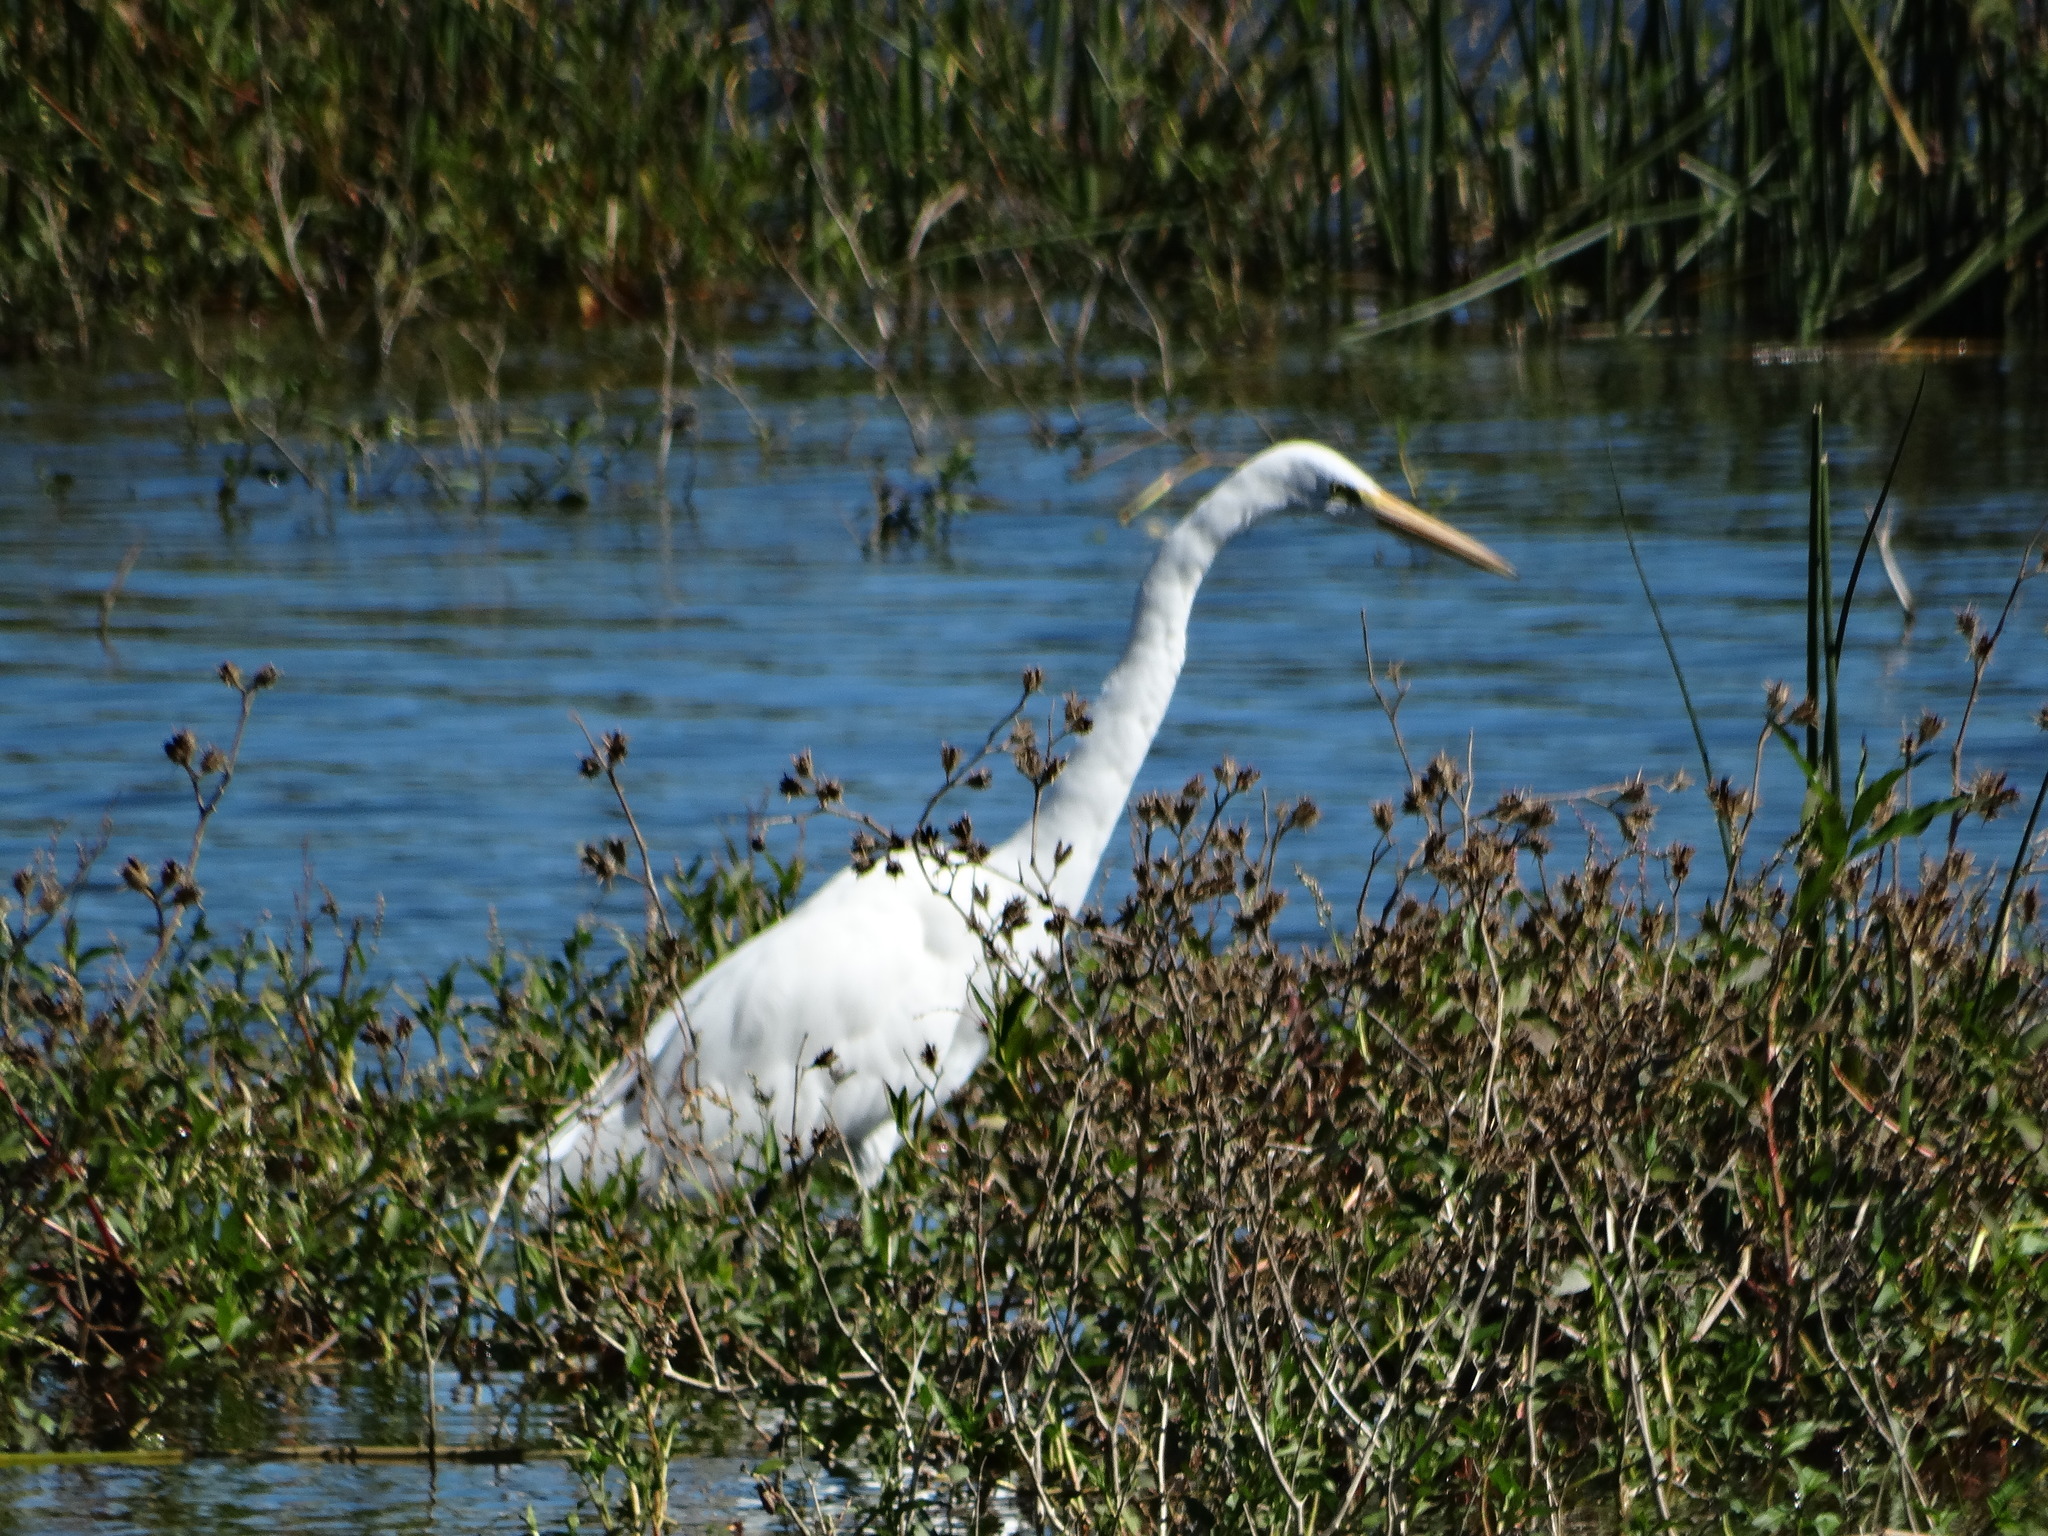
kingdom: Animalia
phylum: Chordata
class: Aves
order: Pelecaniformes
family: Ardeidae
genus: Ardea
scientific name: Ardea alba
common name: Great egret
